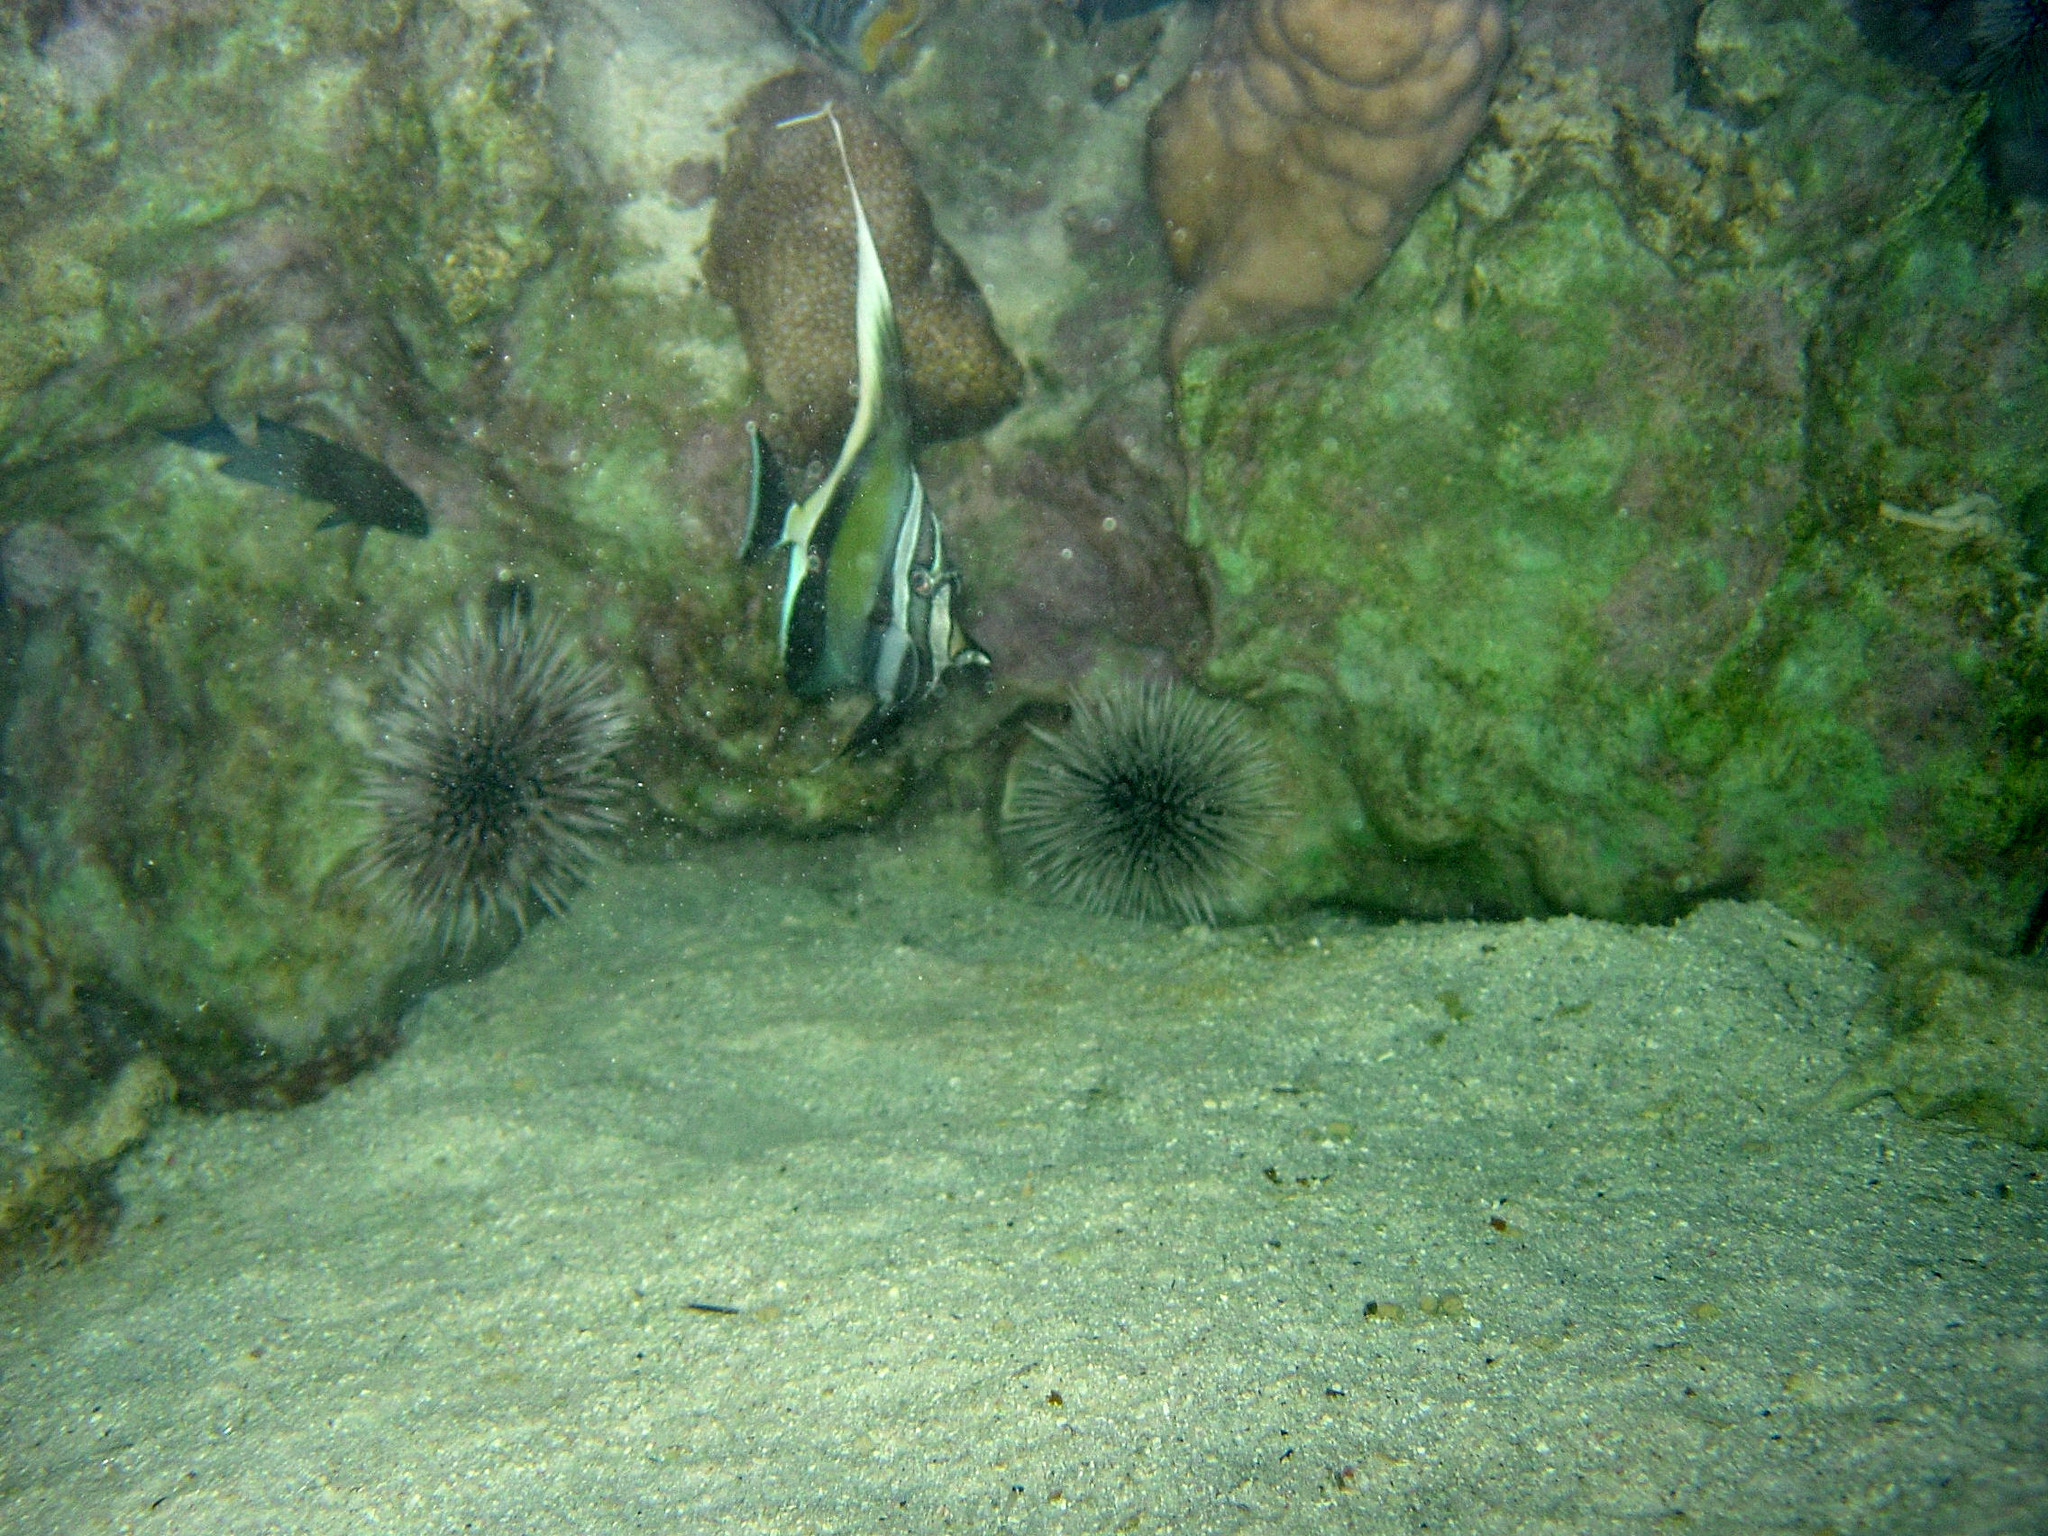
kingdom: Animalia
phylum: Chordata
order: Perciformes
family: Zanclidae
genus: Zanclus
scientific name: Zanclus cornutus
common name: Moorish idol
